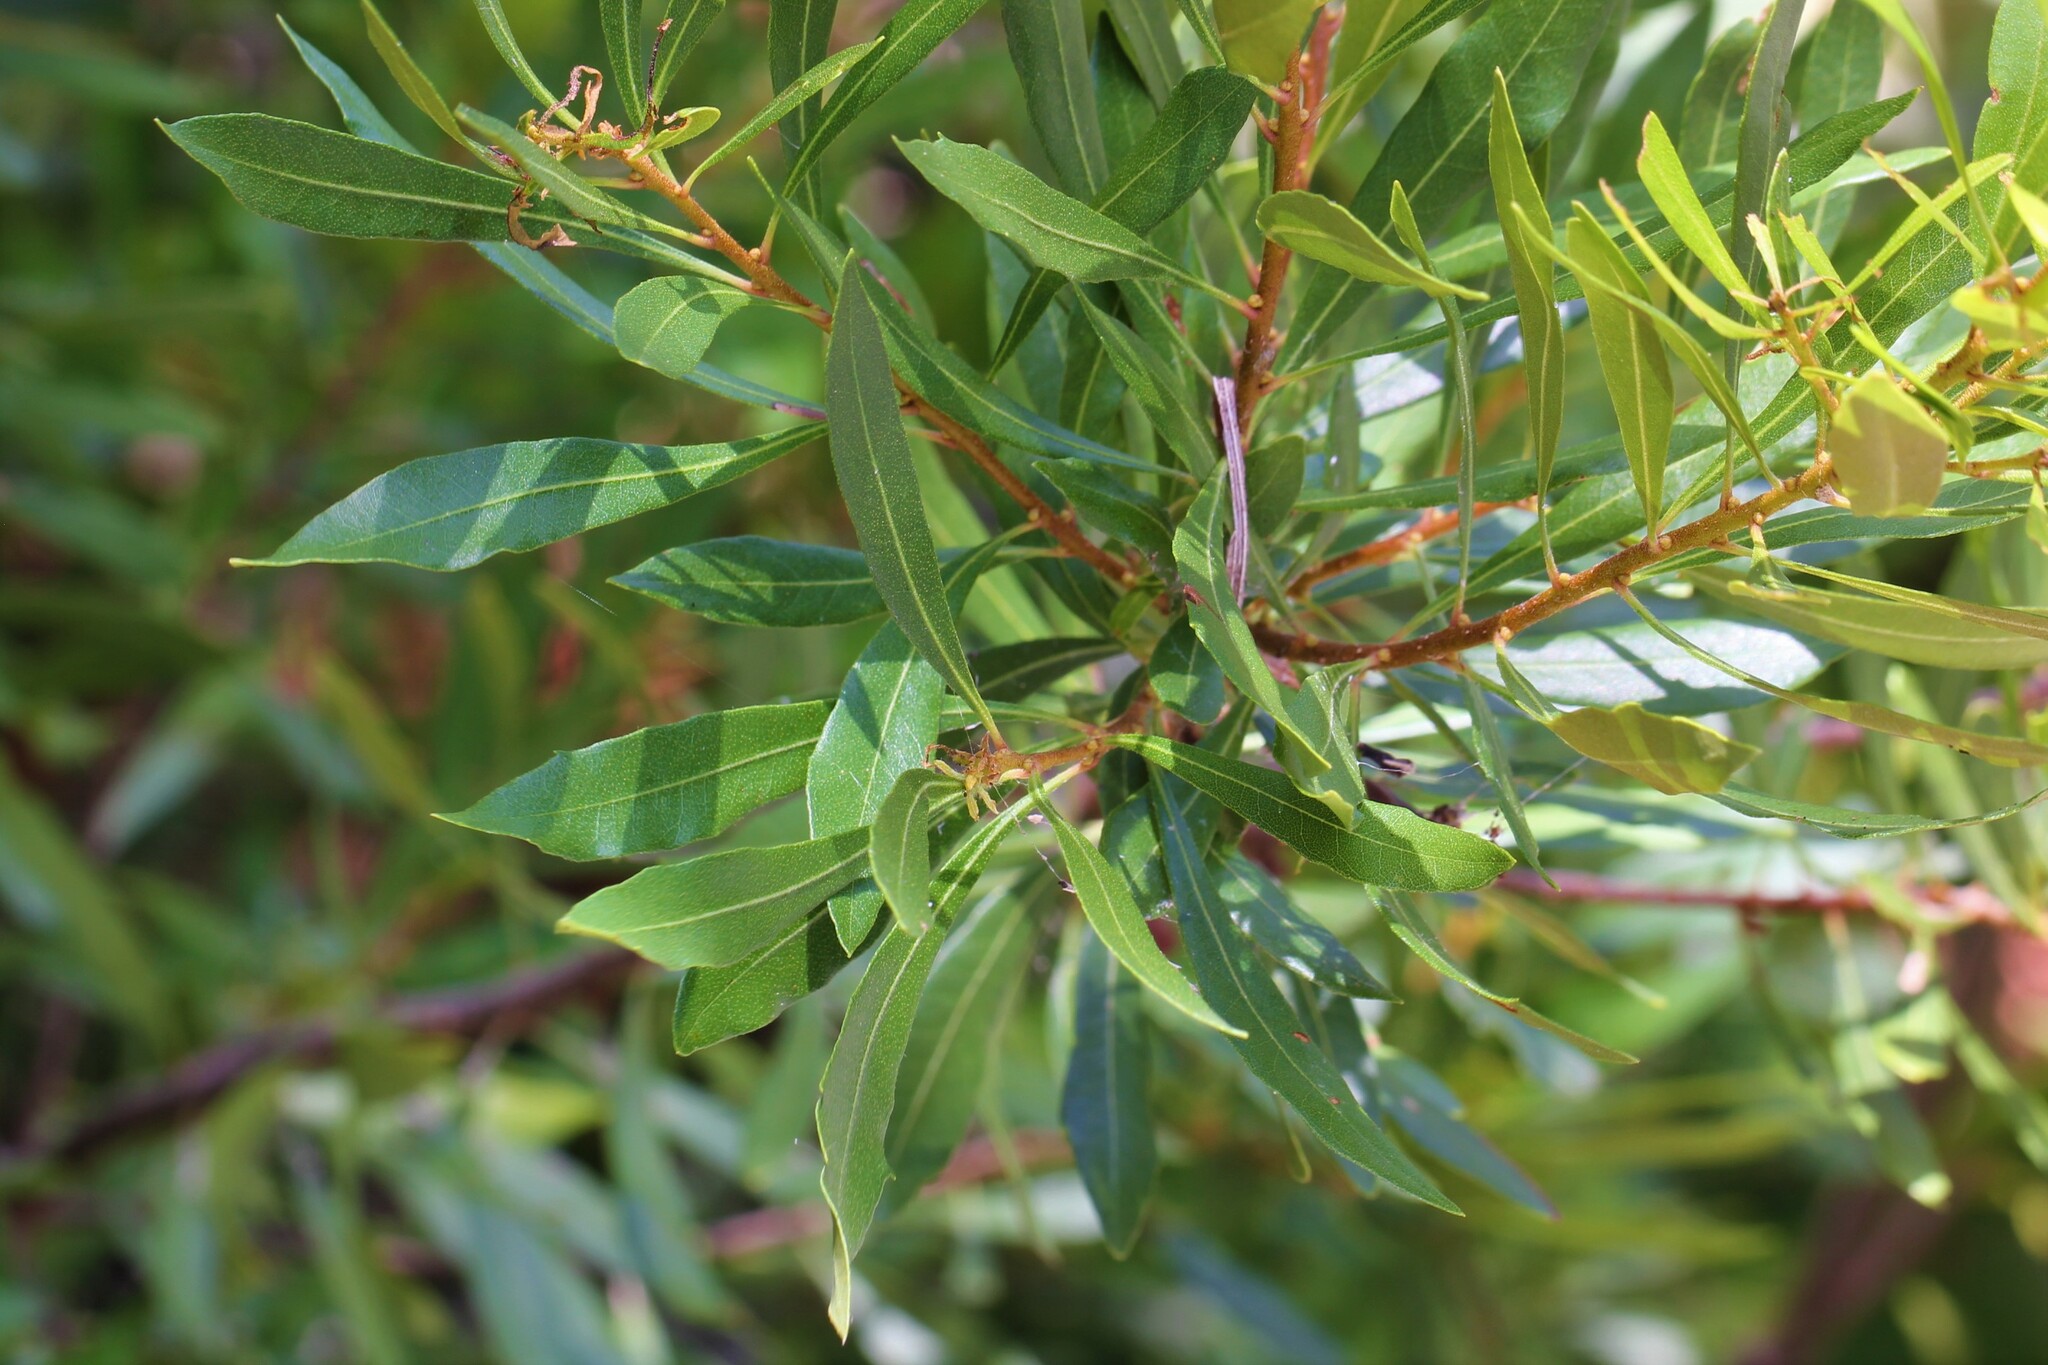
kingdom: Plantae
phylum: Tracheophyta
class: Magnoliopsida
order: Fagales
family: Myricaceae
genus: Morella
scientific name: Morella cerifera
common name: Wax myrtle
